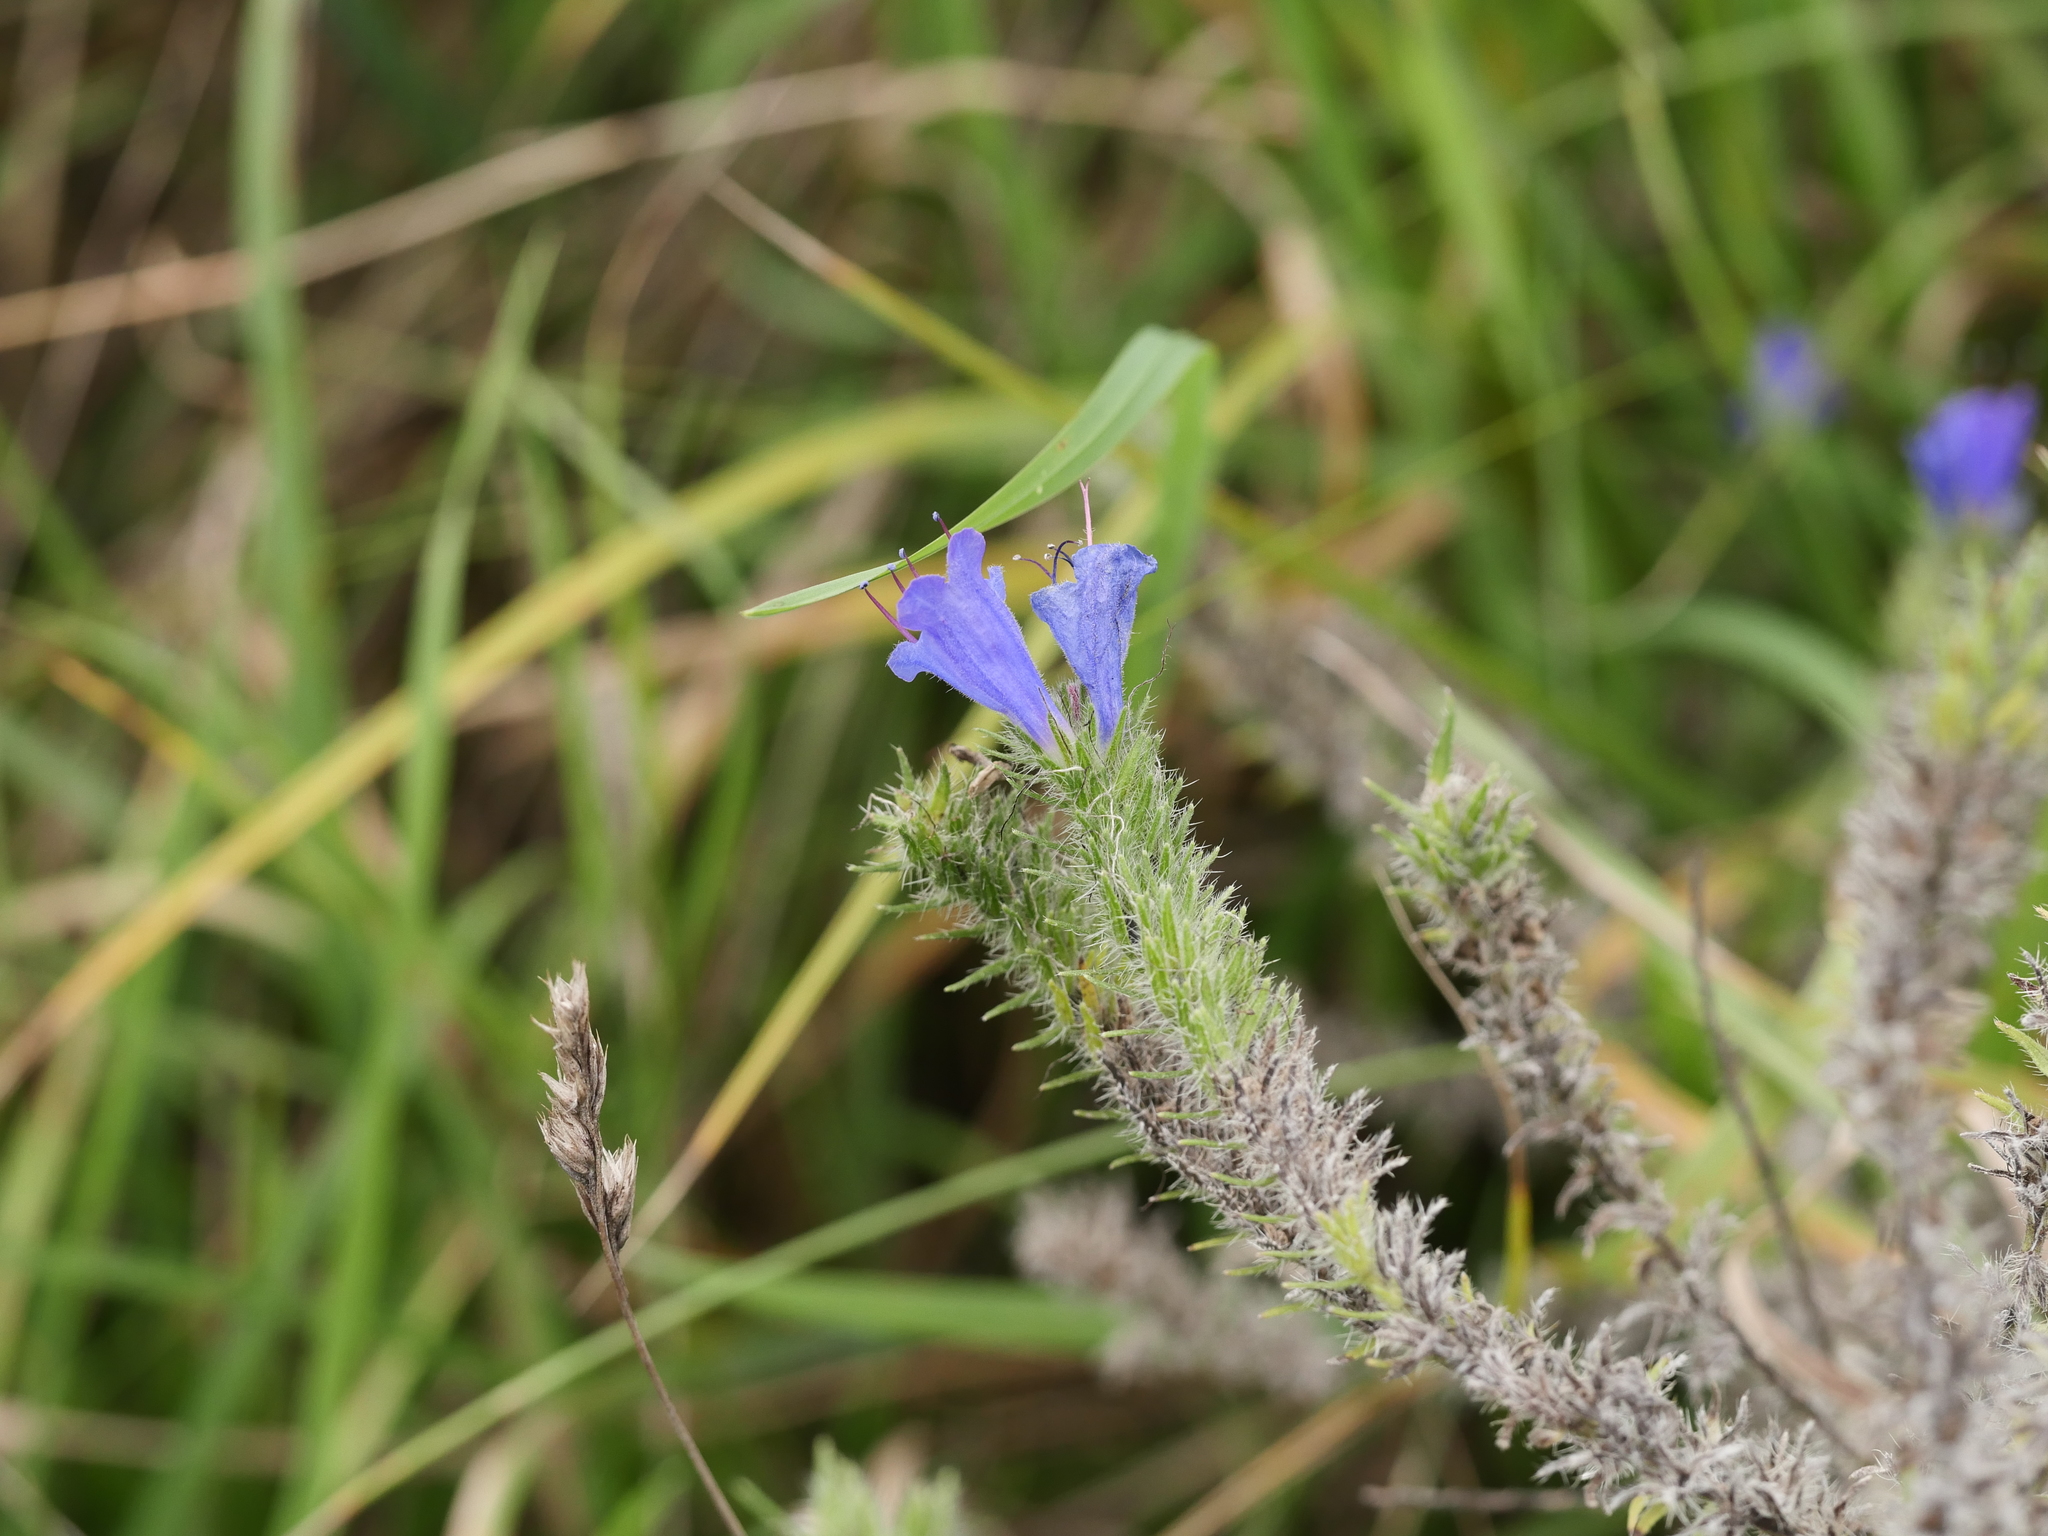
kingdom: Plantae
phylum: Tracheophyta
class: Magnoliopsida
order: Boraginales
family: Boraginaceae
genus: Echium
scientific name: Echium vulgare
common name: Common viper's bugloss
